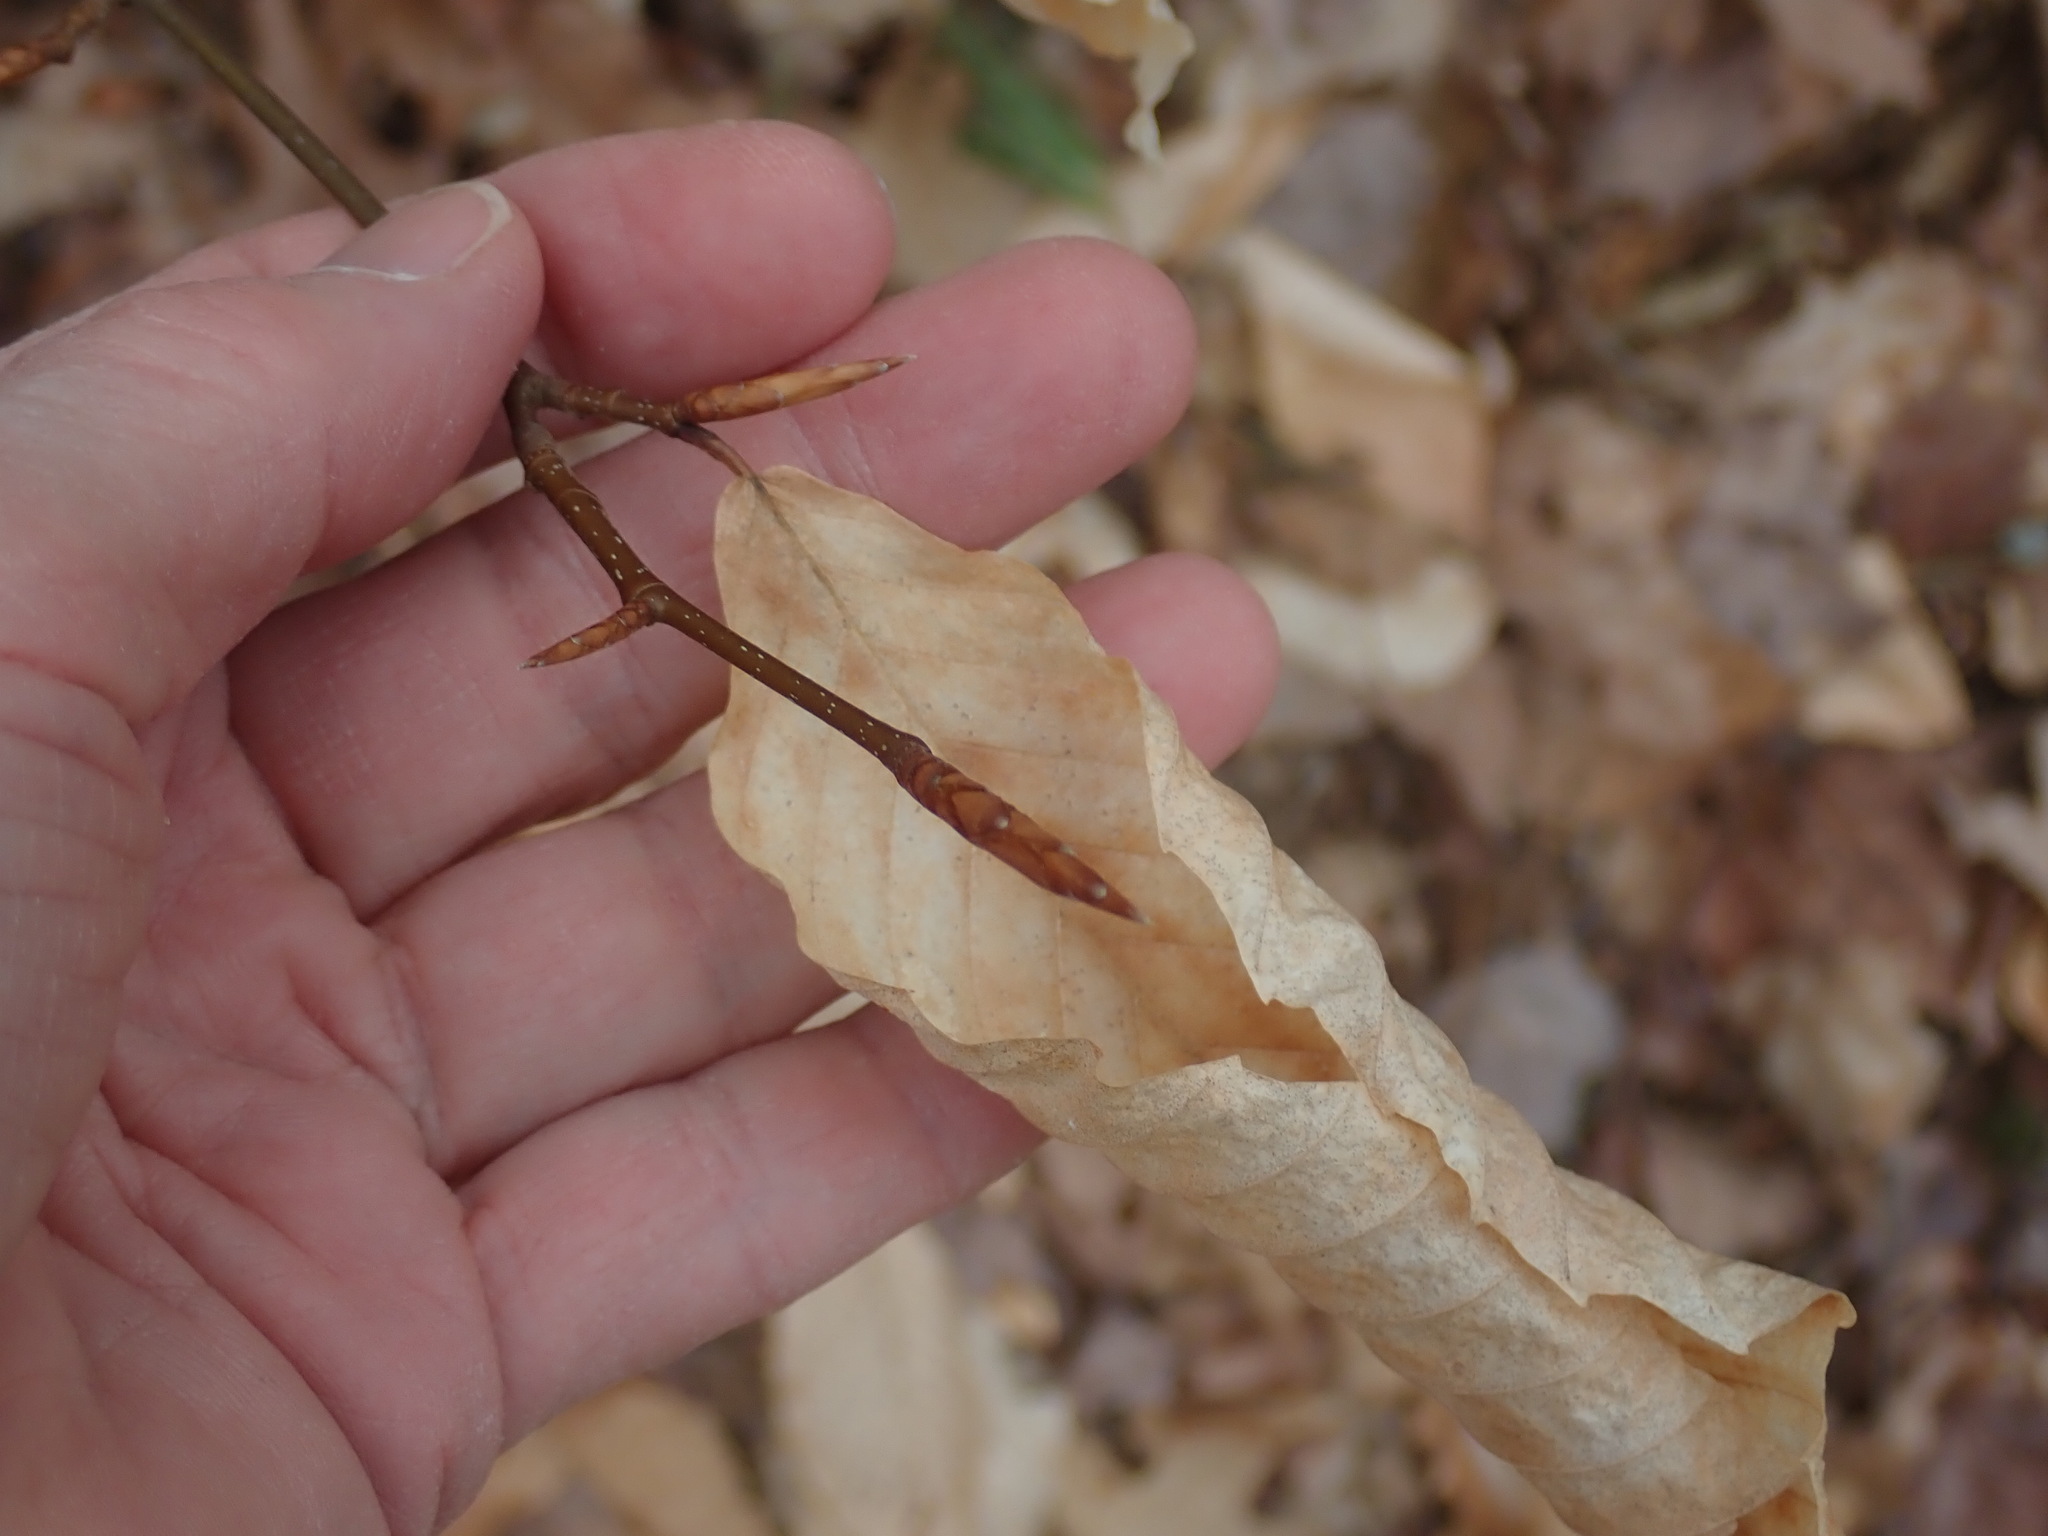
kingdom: Plantae
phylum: Tracheophyta
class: Magnoliopsida
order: Fagales
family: Fagaceae
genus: Fagus
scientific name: Fagus grandifolia
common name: American beech
